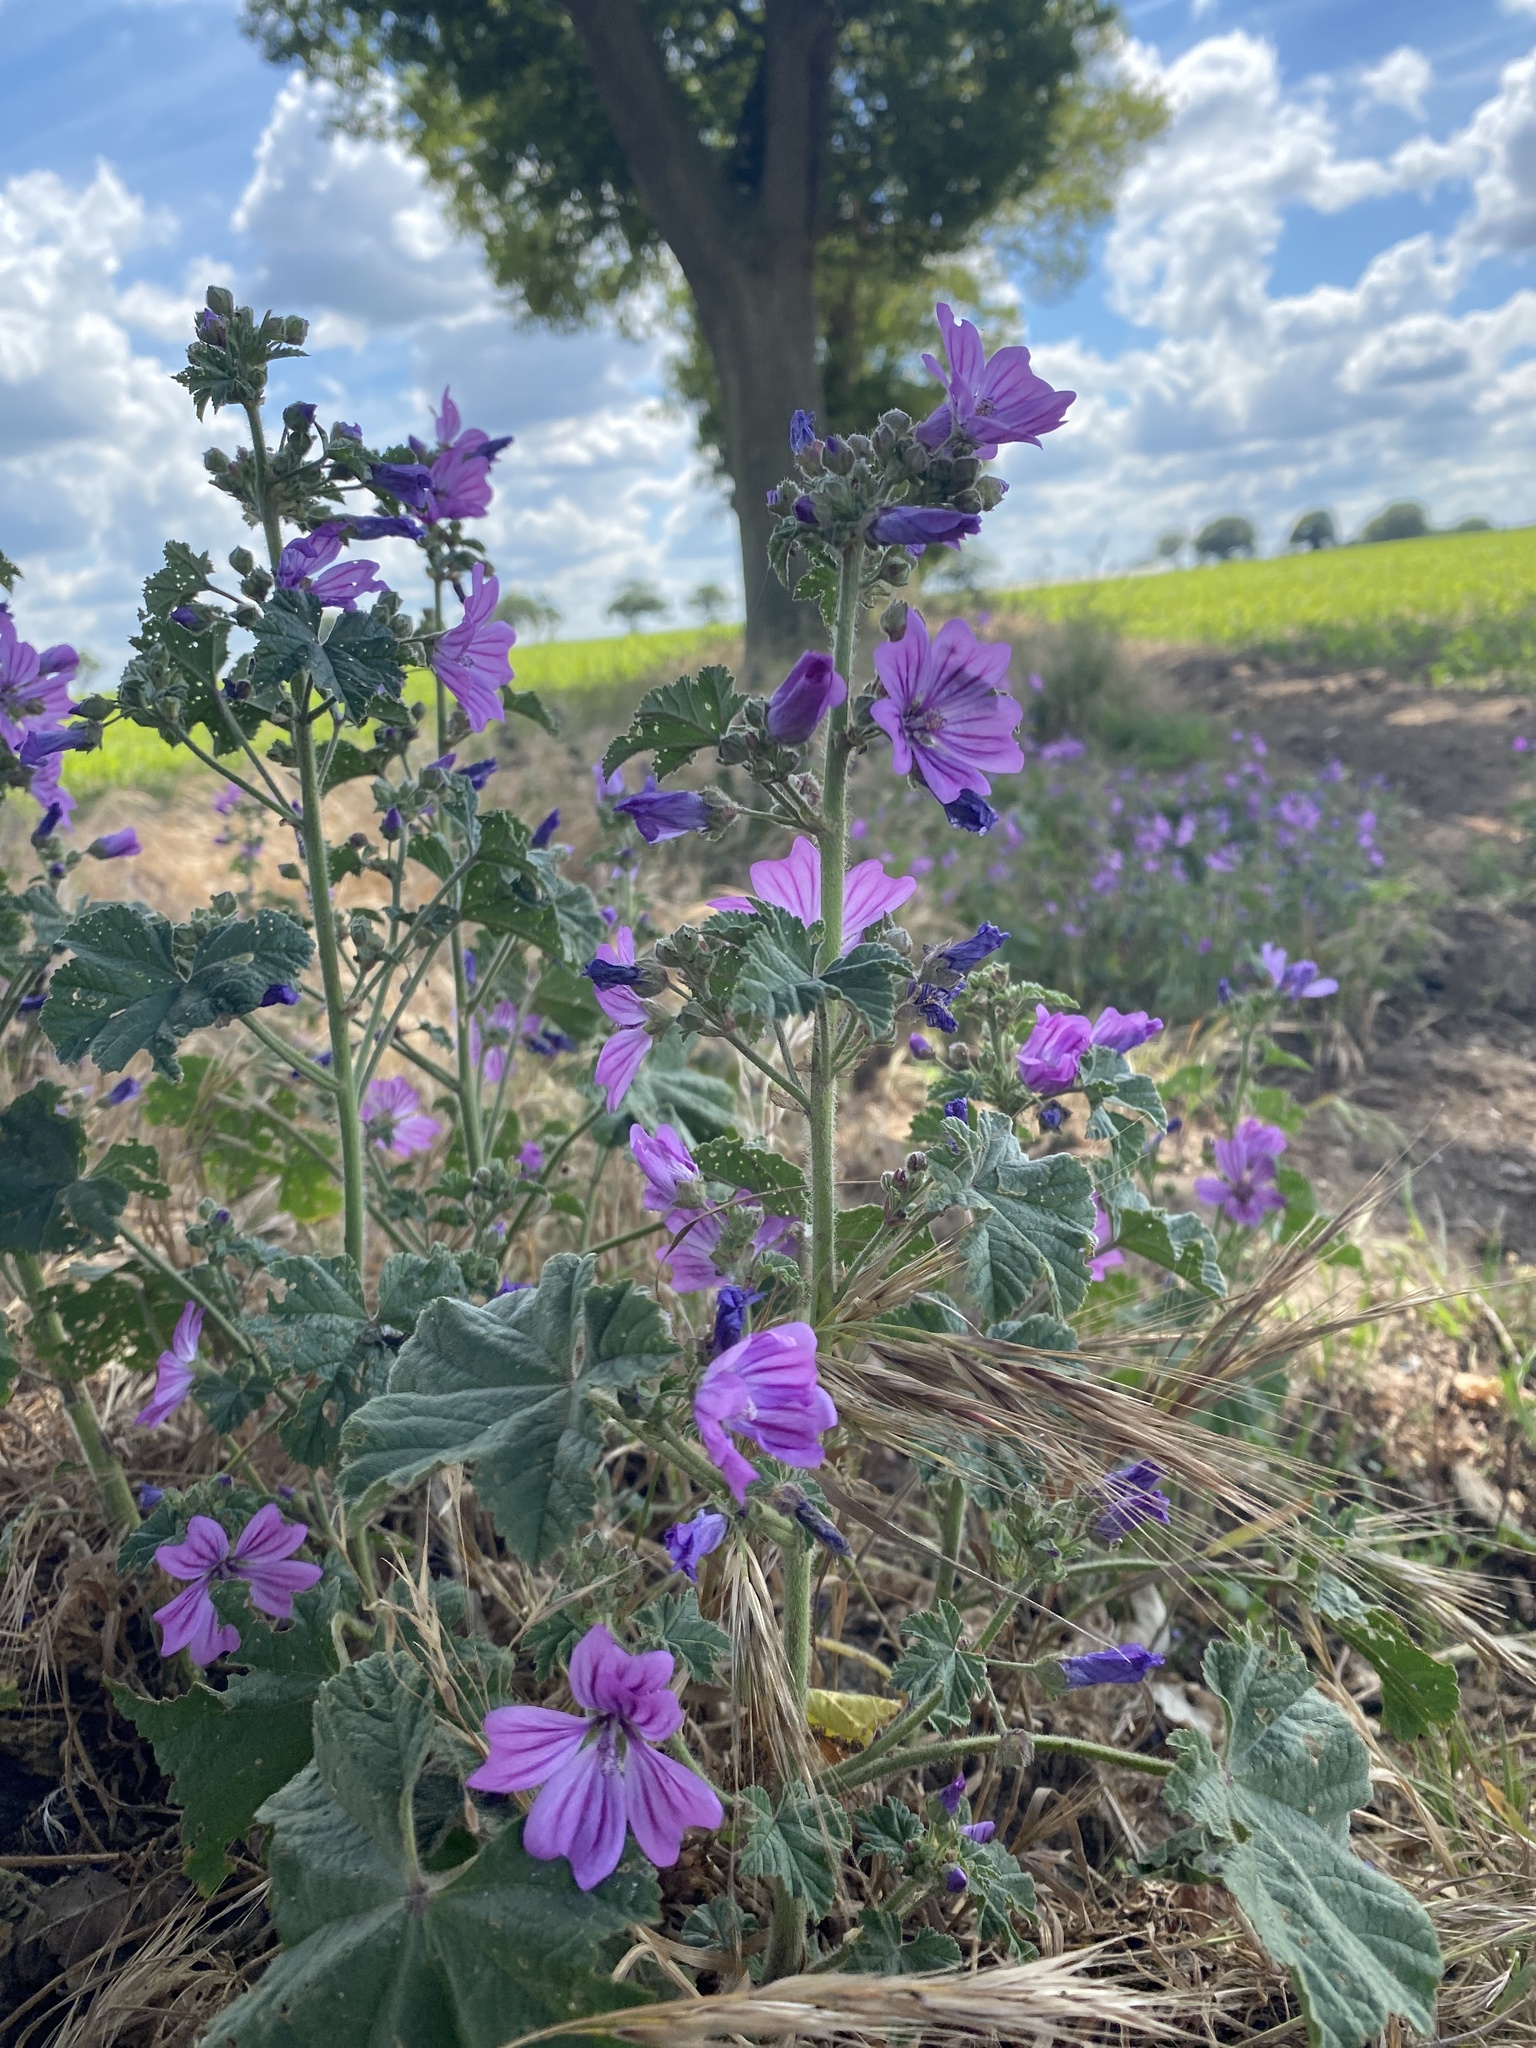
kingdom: Plantae
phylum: Tracheophyta
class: Magnoliopsida
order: Malvales
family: Malvaceae
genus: Malva
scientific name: Malva sylvestris
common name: Common mallow
